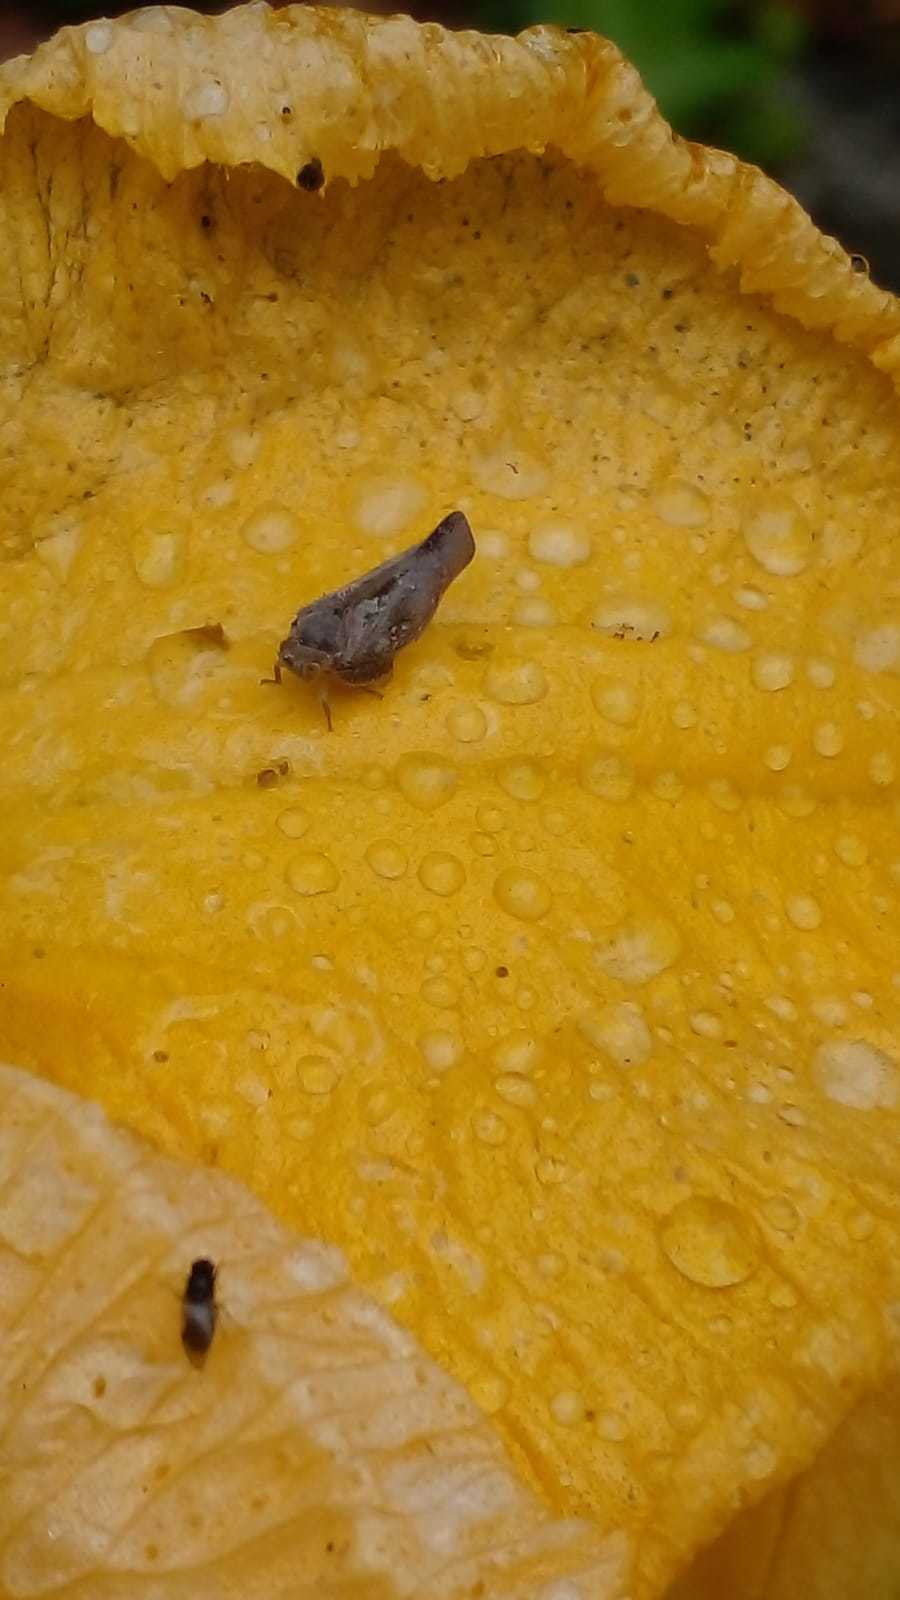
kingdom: Animalia
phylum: Arthropoda
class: Insecta
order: Hemiptera
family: Flatidae
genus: Epormenis
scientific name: Epormenis cestri
